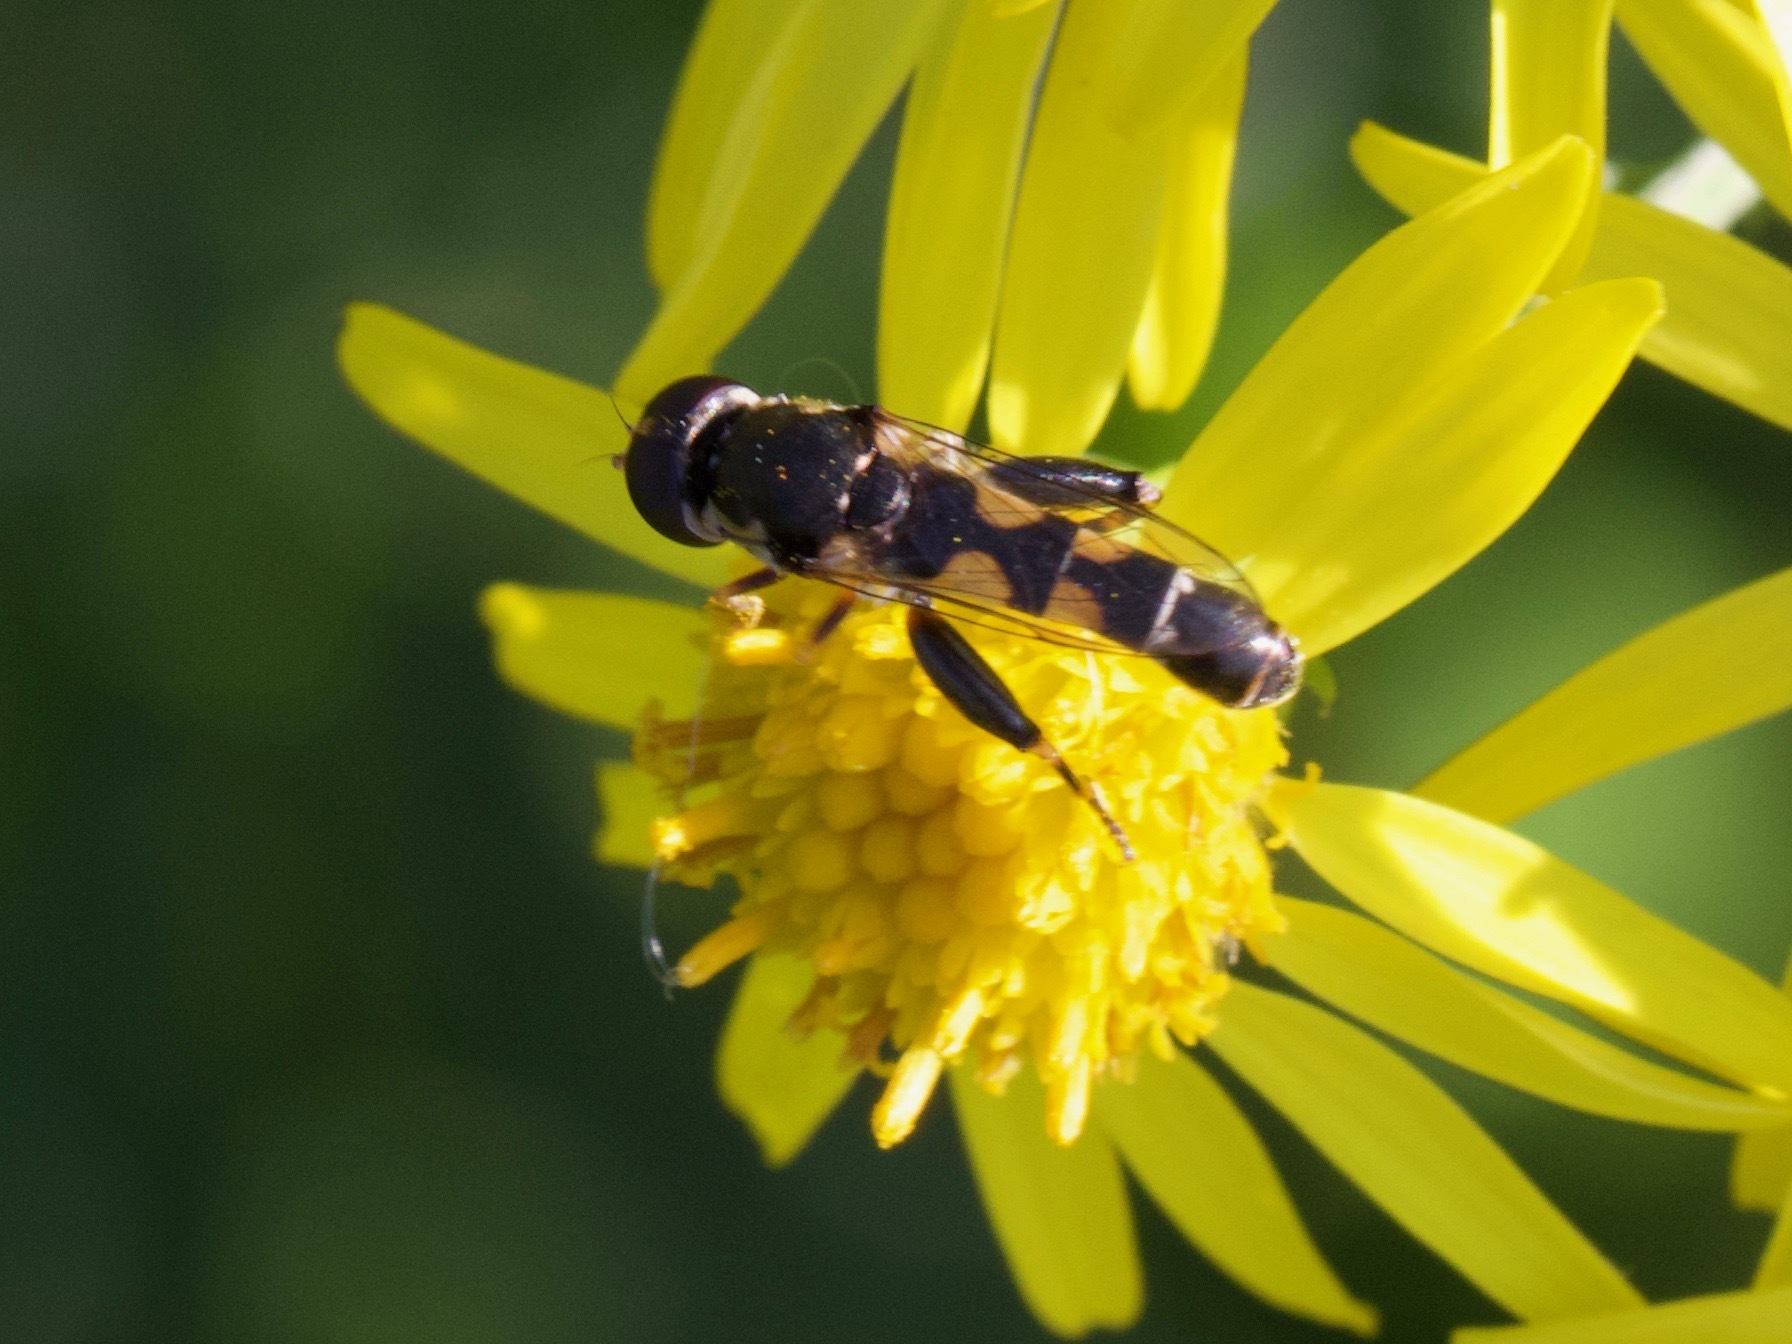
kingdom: Animalia
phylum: Arthropoda
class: Insecta
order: Diptera
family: Syrphidae
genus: Syritta
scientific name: Syritta pipiens
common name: Hover fly
